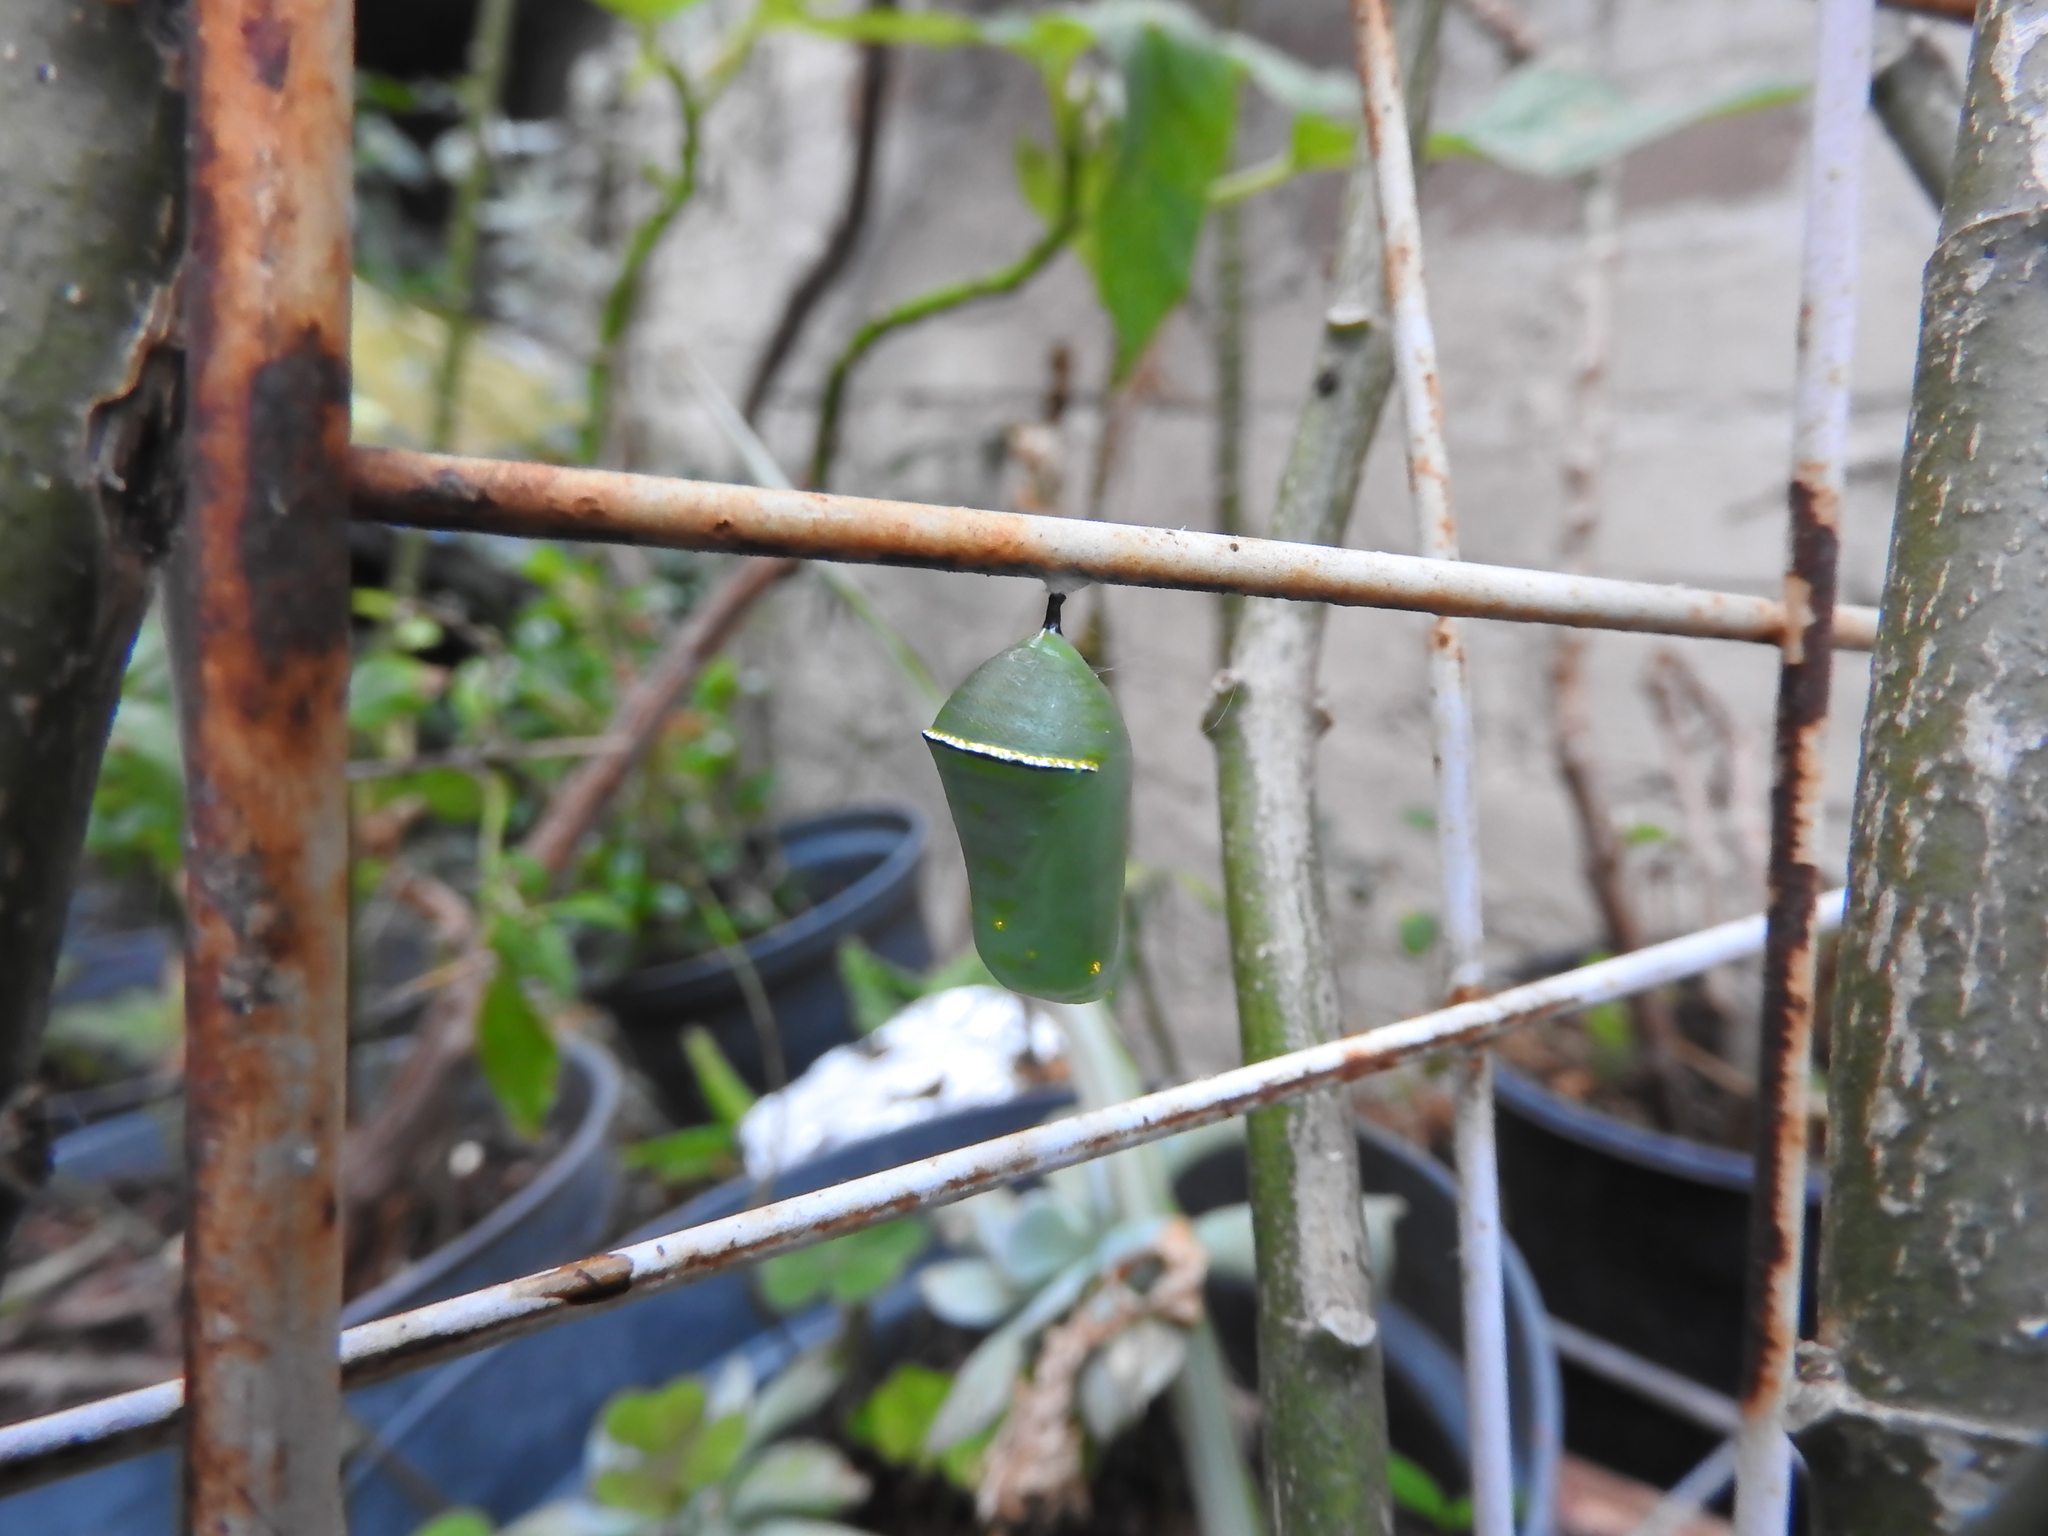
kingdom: Animalia
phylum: Arthropoda
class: Insecta
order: Lepidoptera
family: Nymphalidae
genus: Danaus
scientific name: Danaus
